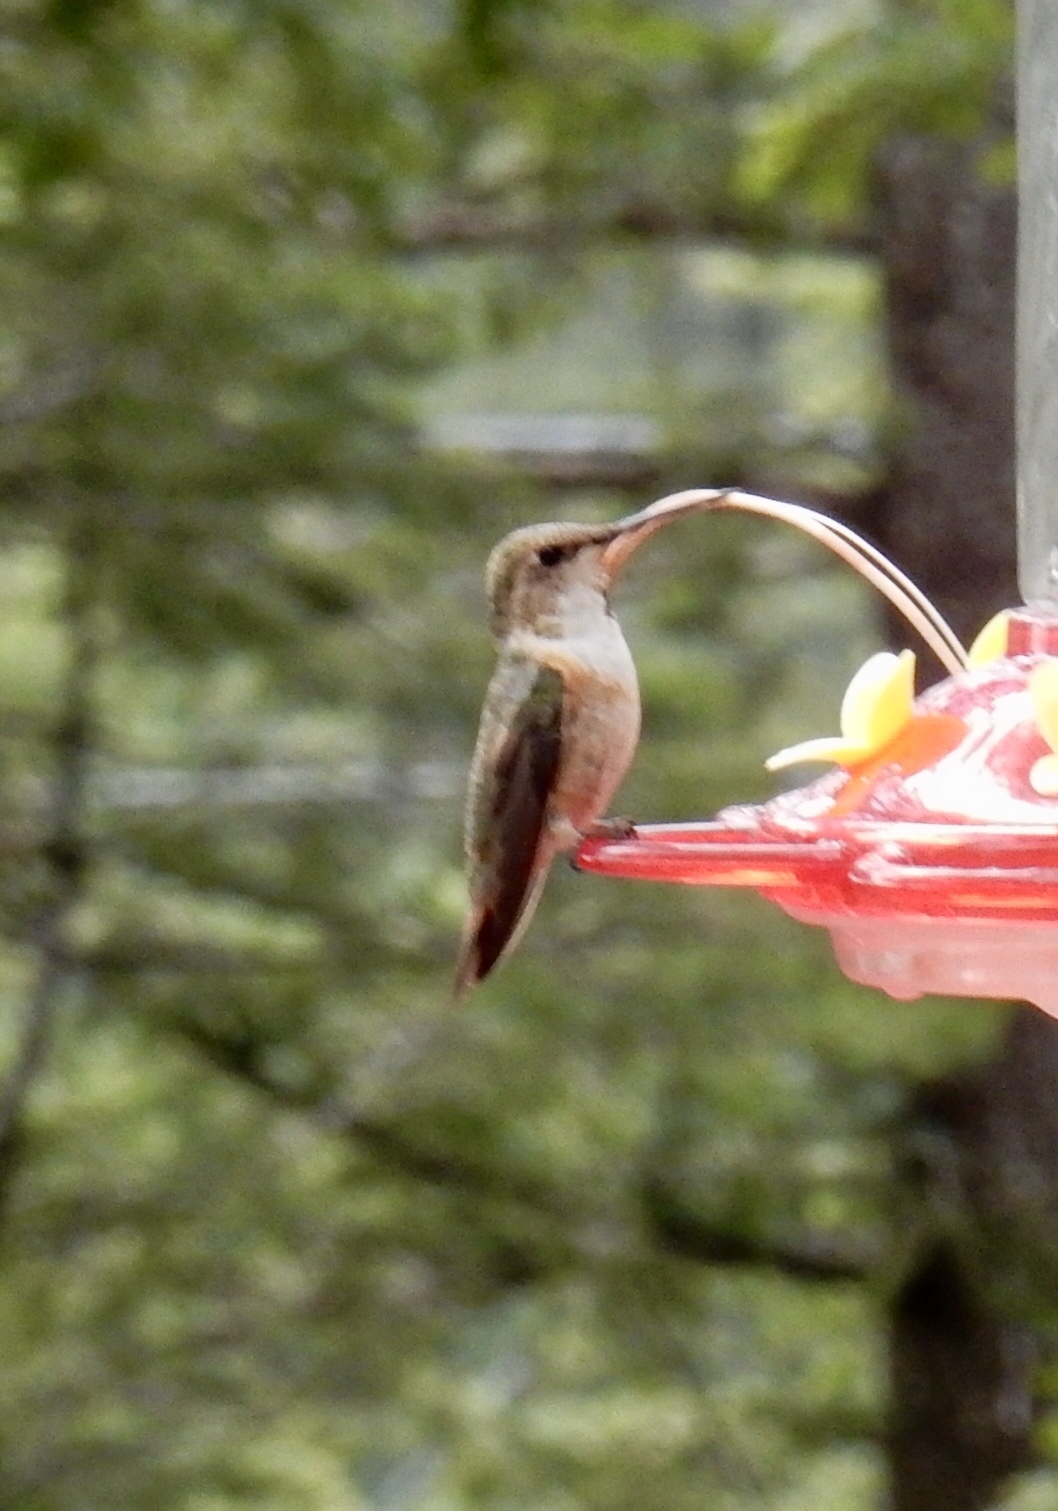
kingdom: Animalia
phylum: Chordata
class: Aves
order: Apodiformes
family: Trochilidae
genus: Selasphorus
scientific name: Selasphorus rufus
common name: Rufous hummingbird
